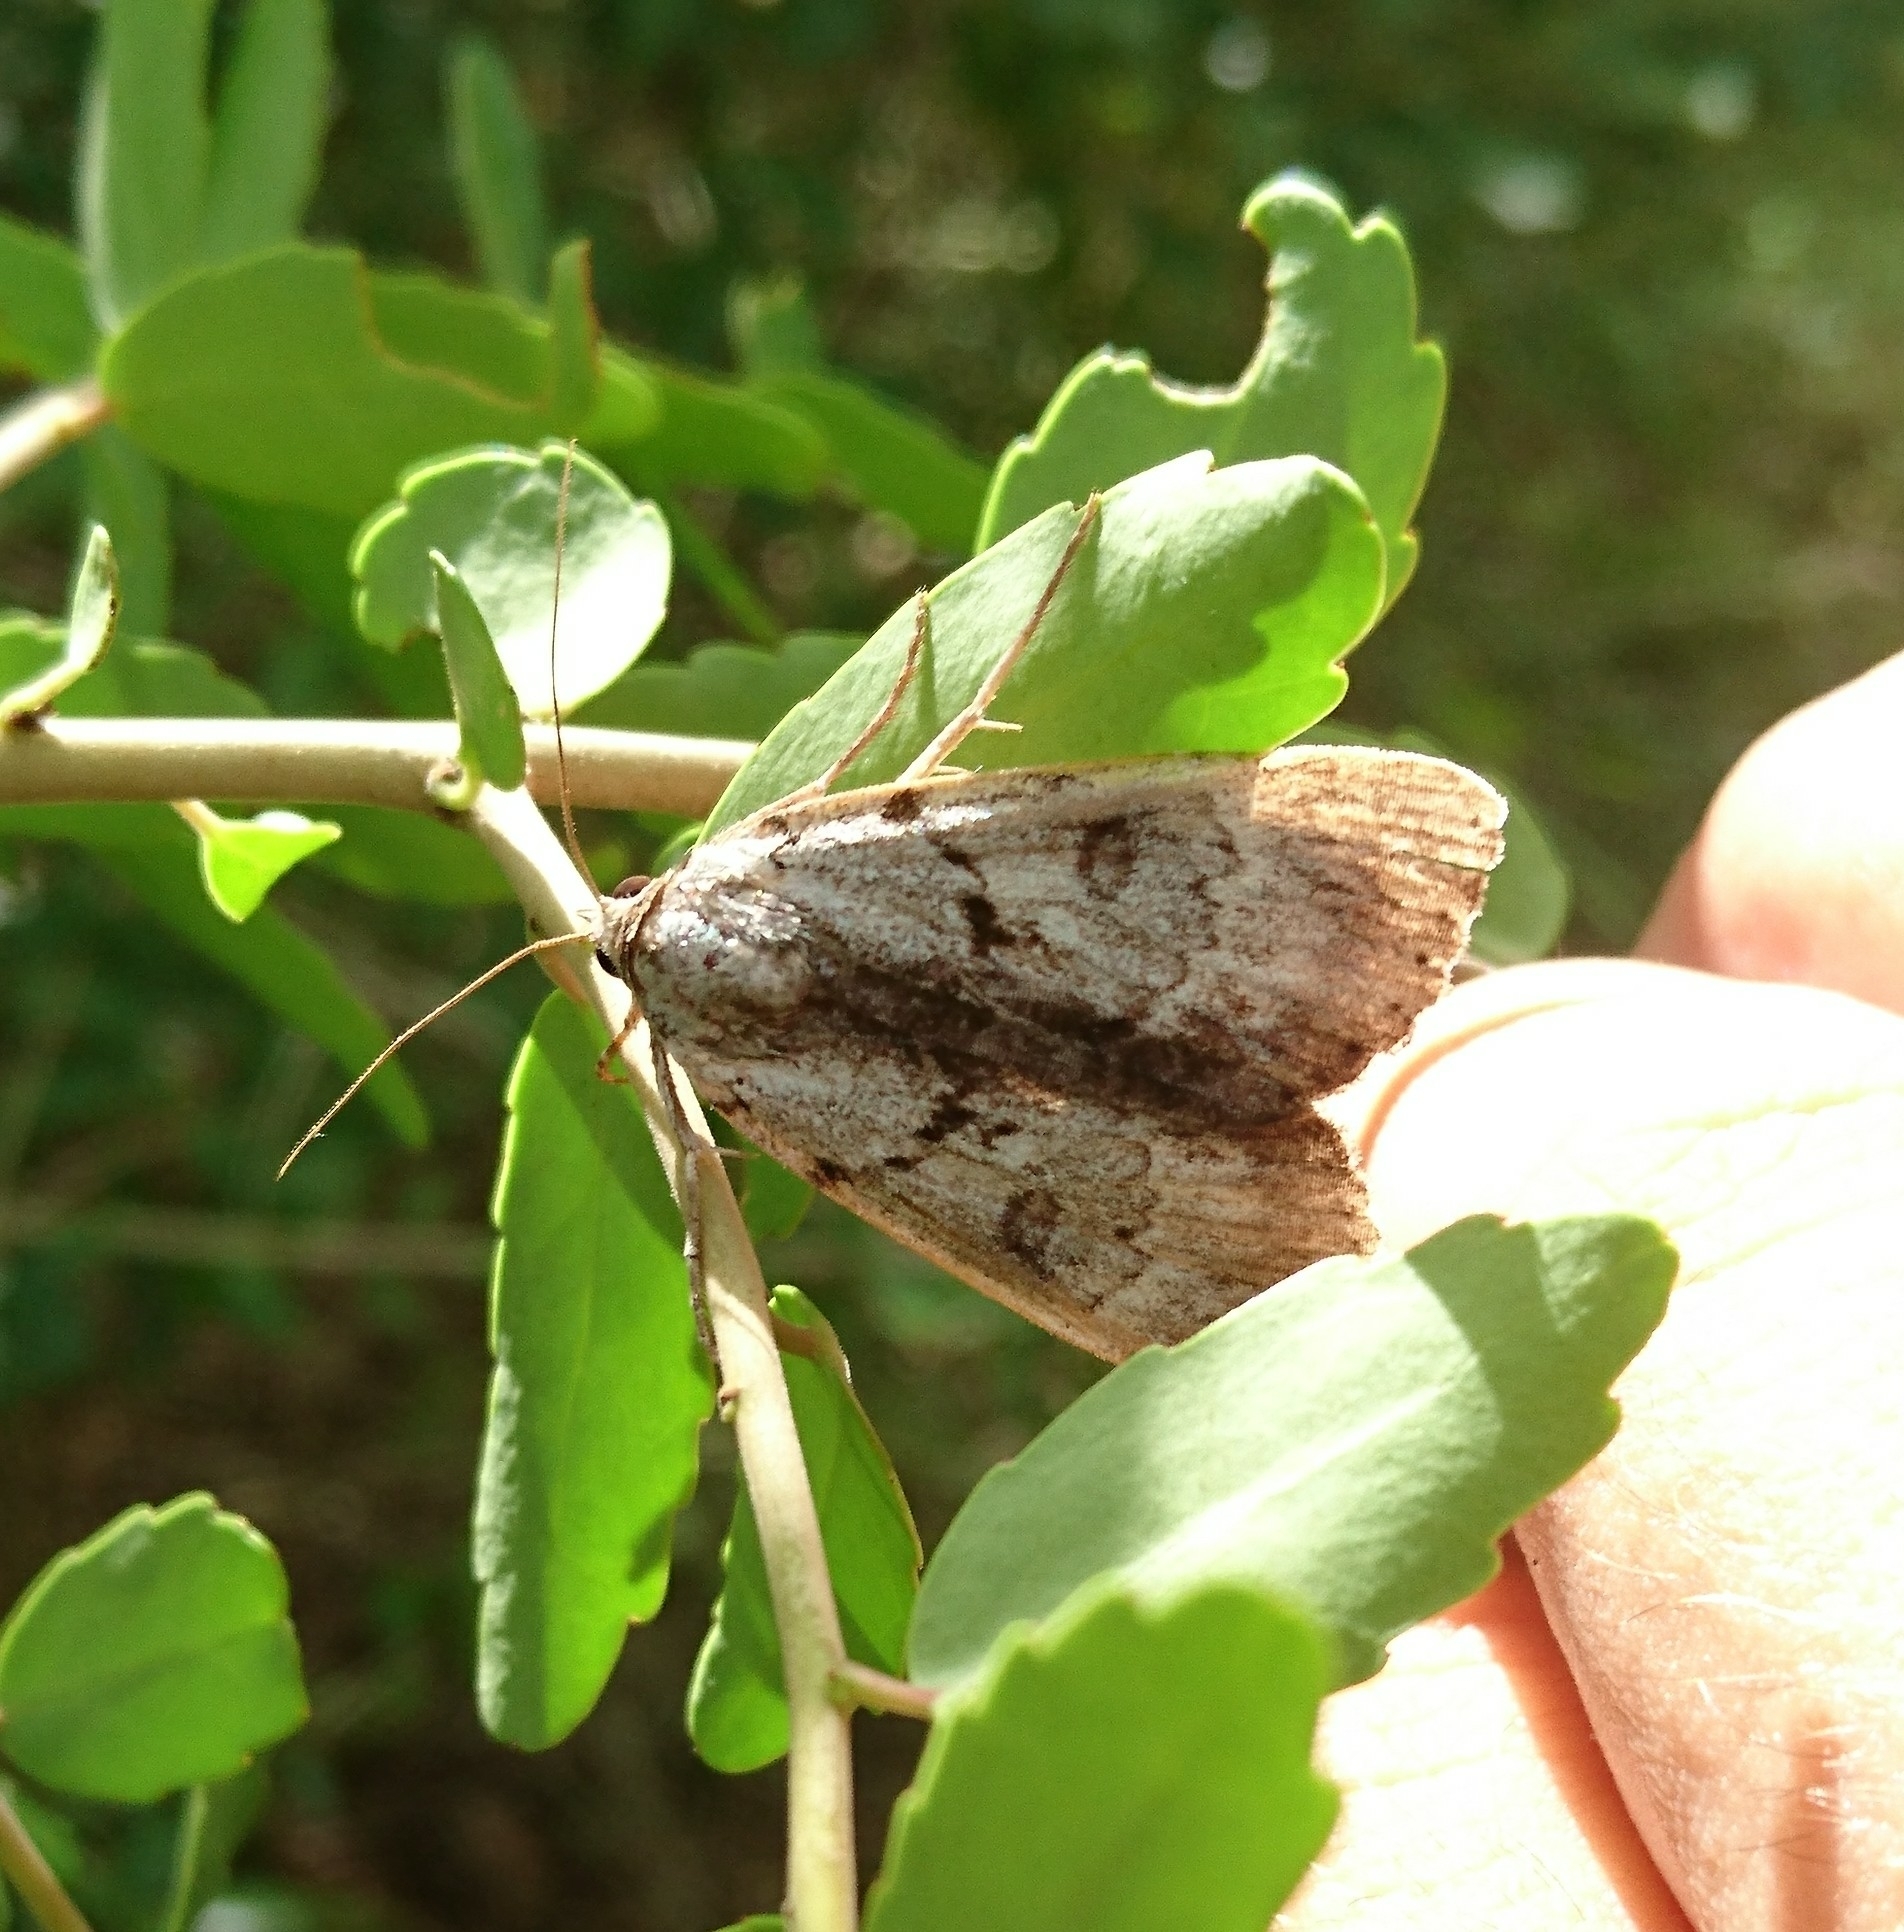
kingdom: Animalia
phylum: Arthropoda
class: Insecta
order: Lepidoptera
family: Erebidae
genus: Catocala
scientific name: Catocala andromedae
